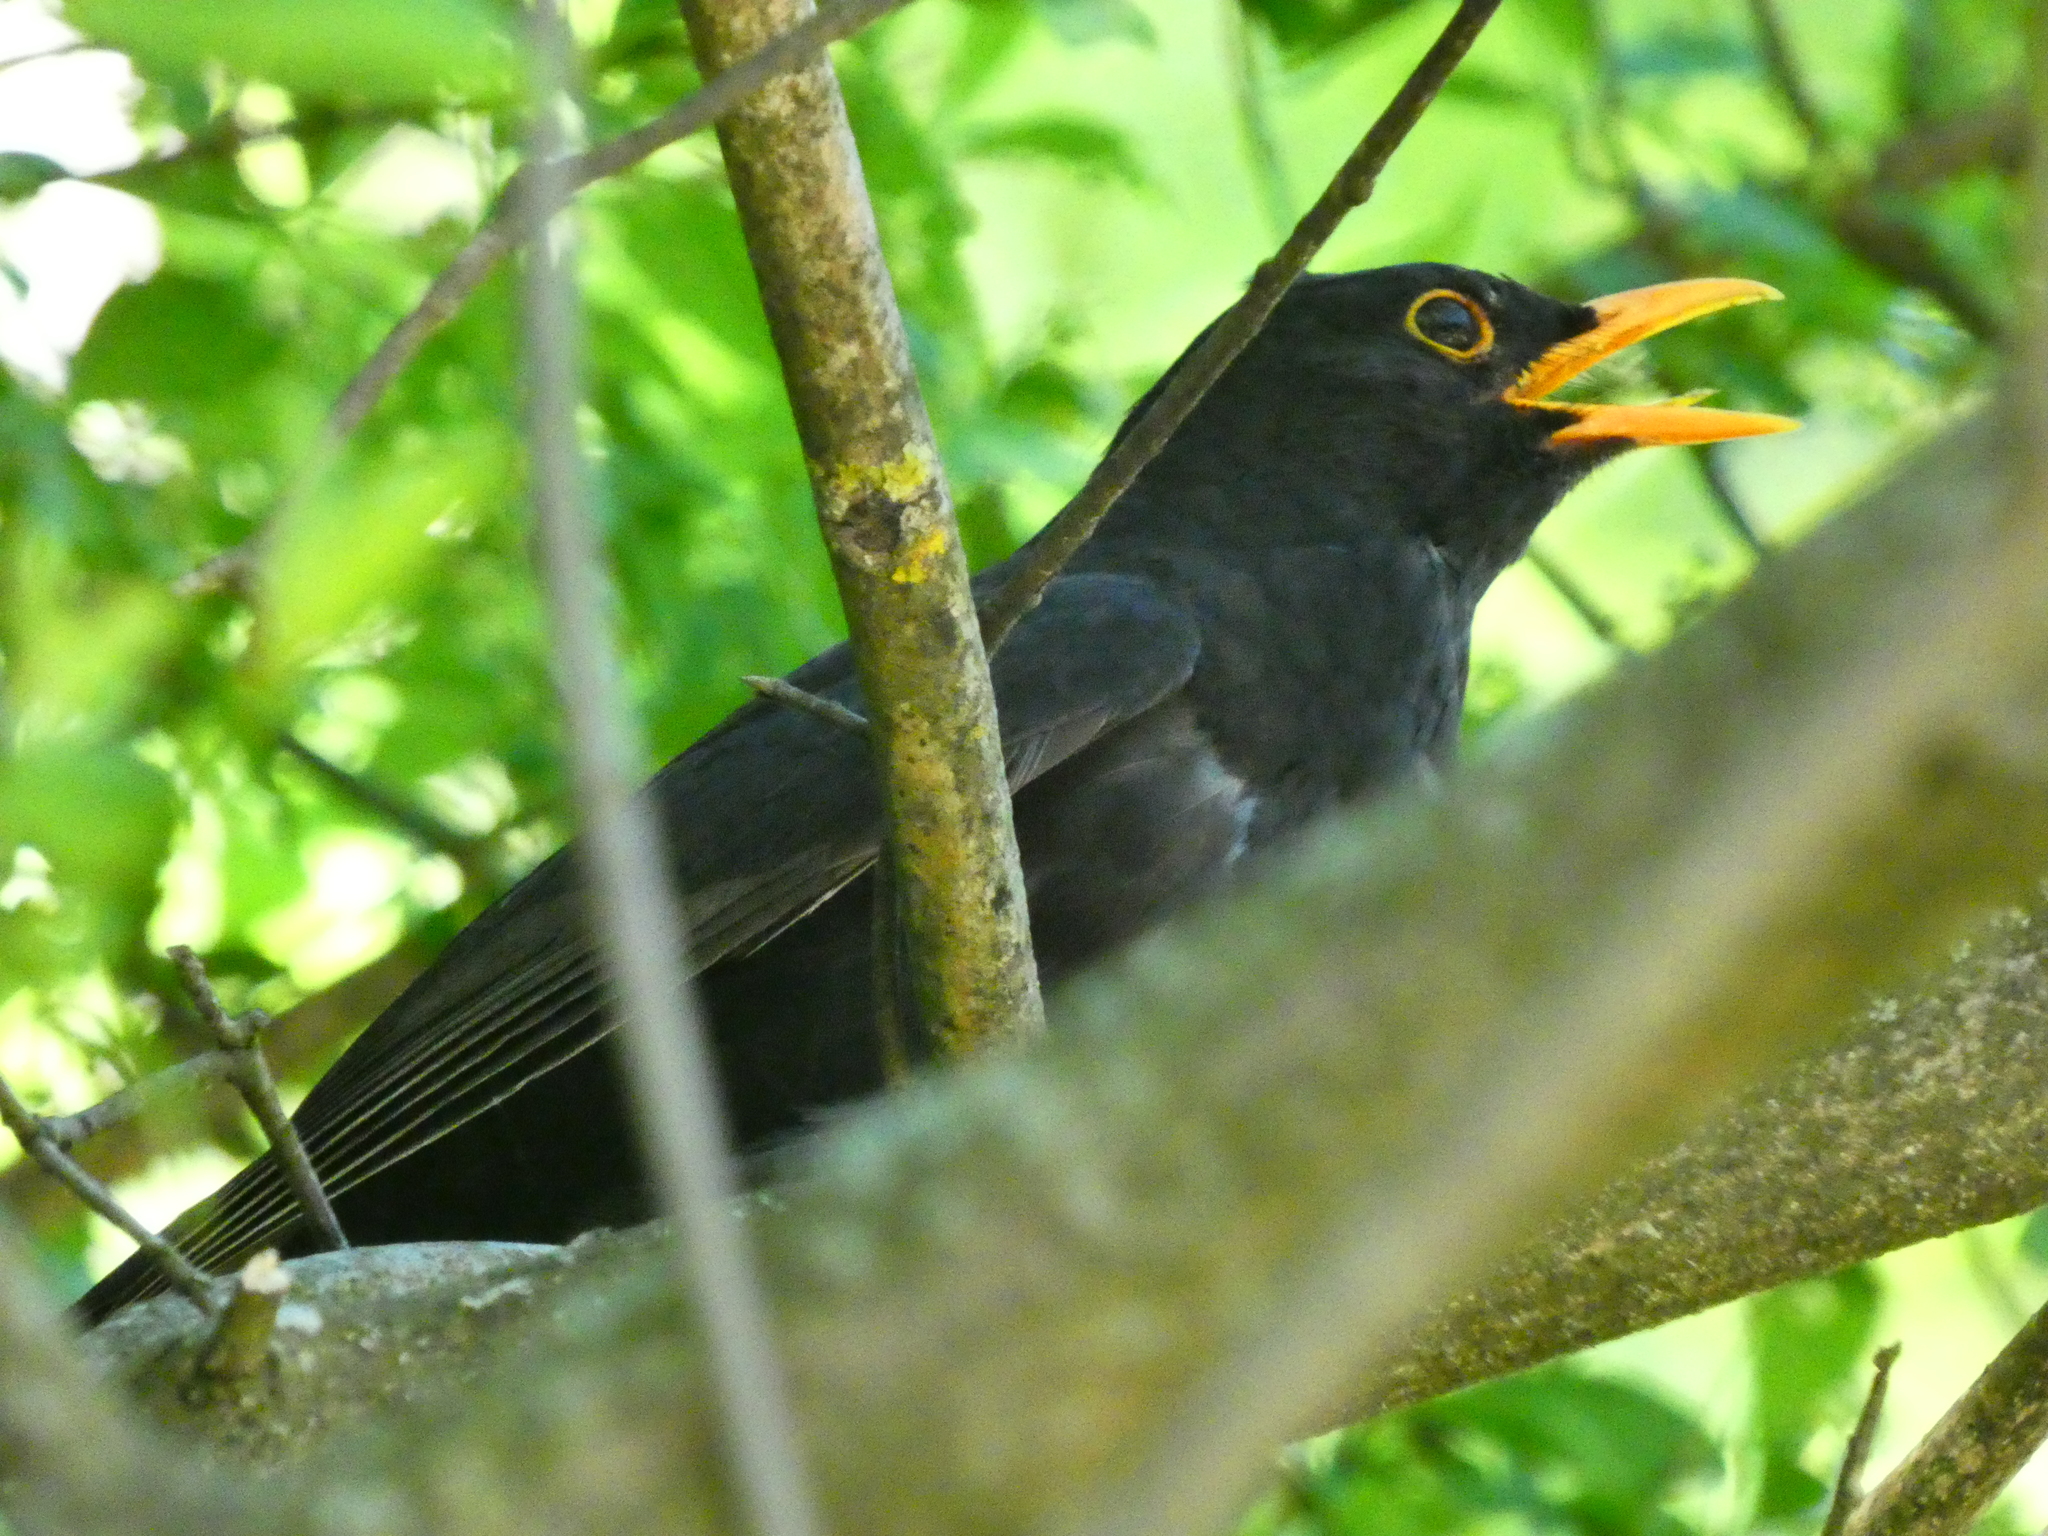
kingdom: Animalia
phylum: Chordata
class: Aves
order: Passeriformes
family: Turdidae
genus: Turdus
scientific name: Turdus merula
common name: Common blackbird
